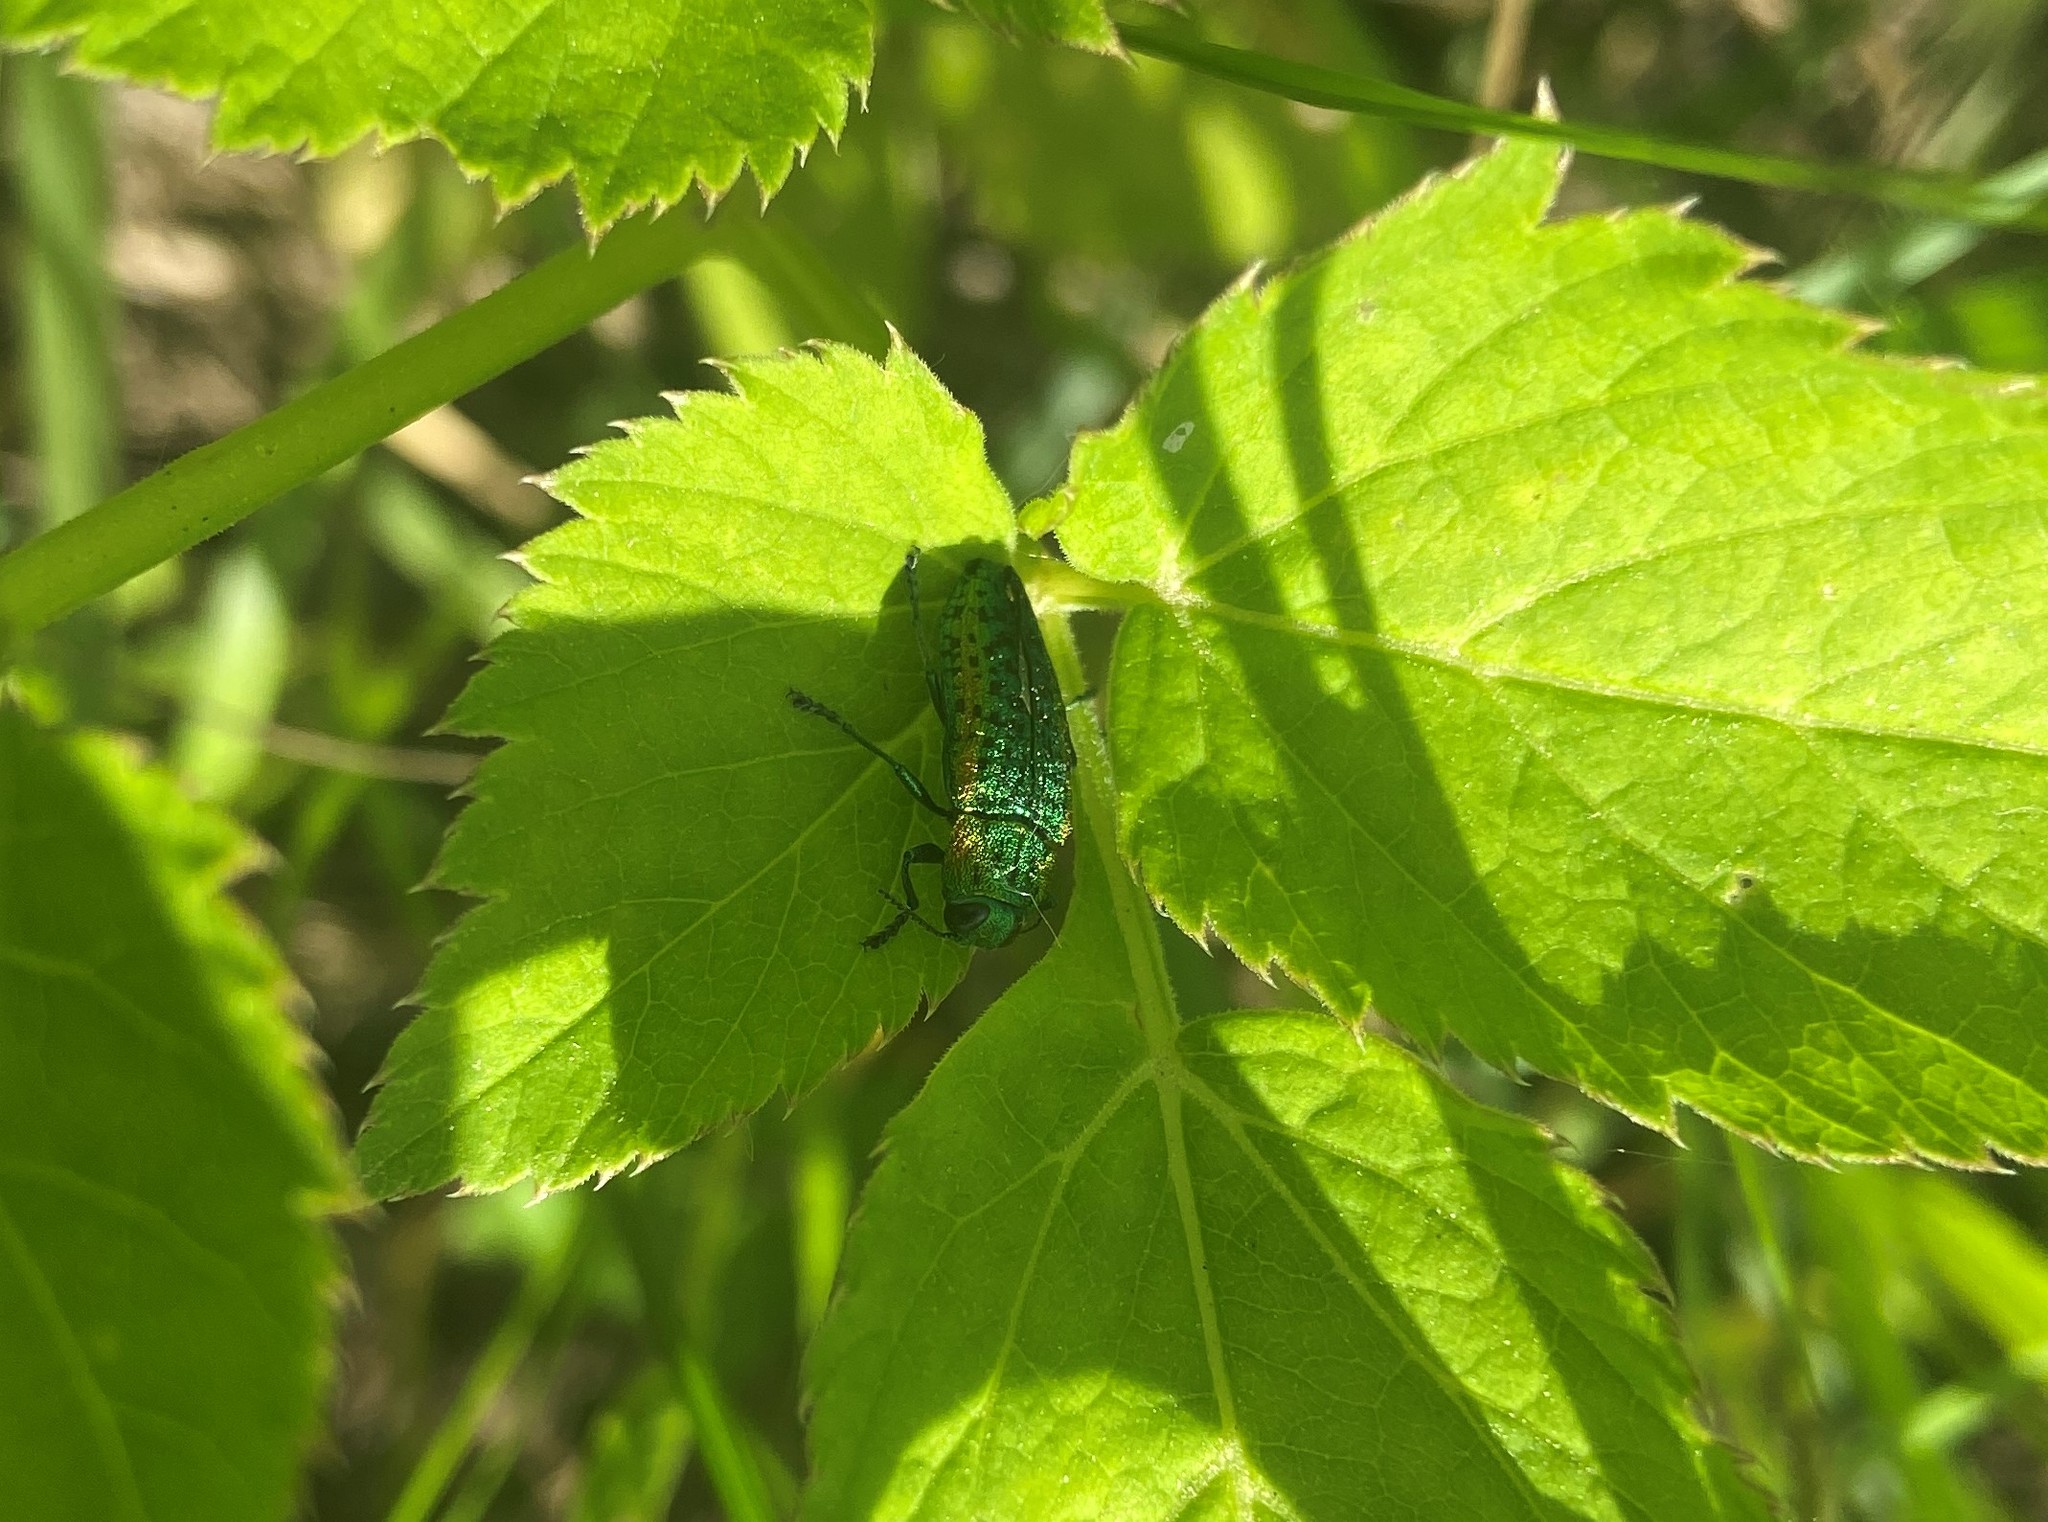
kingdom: Animalia
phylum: Arthropoda
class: Insecta
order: Coleoptera
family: Buprestidae
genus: Lamprodila
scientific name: Lamprodila decipiens
